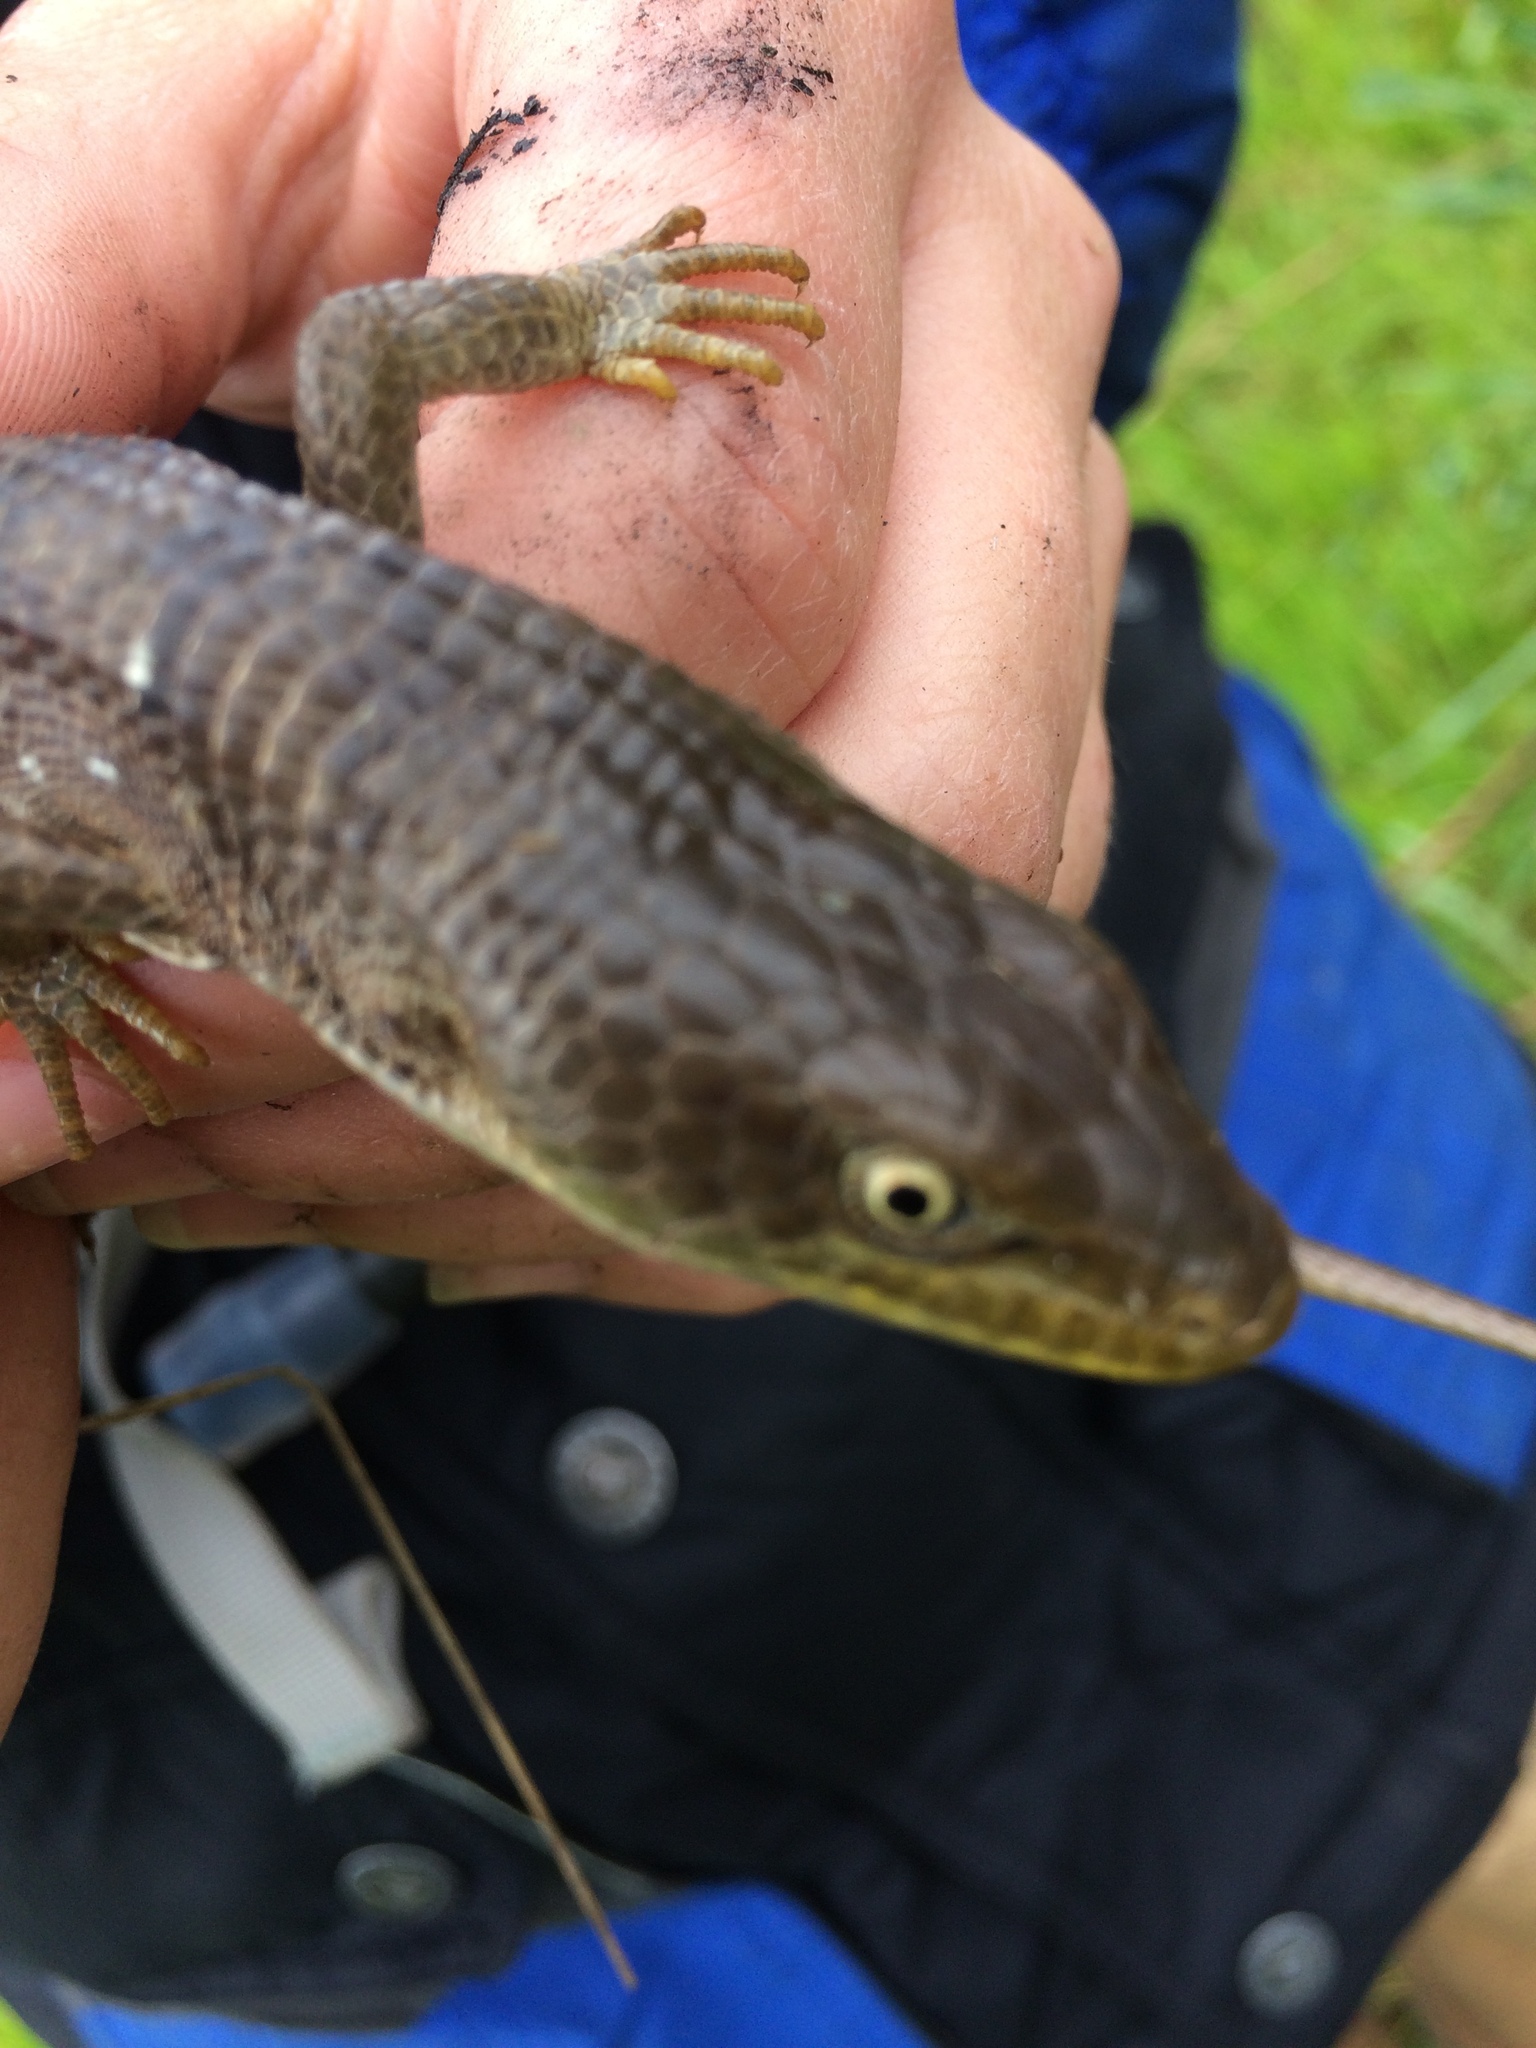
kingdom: Animalia
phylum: Chordata
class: Squamata
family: Anguidae
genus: Elgaria
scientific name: Elgaria multicarinata
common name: Southern alligator lizard
